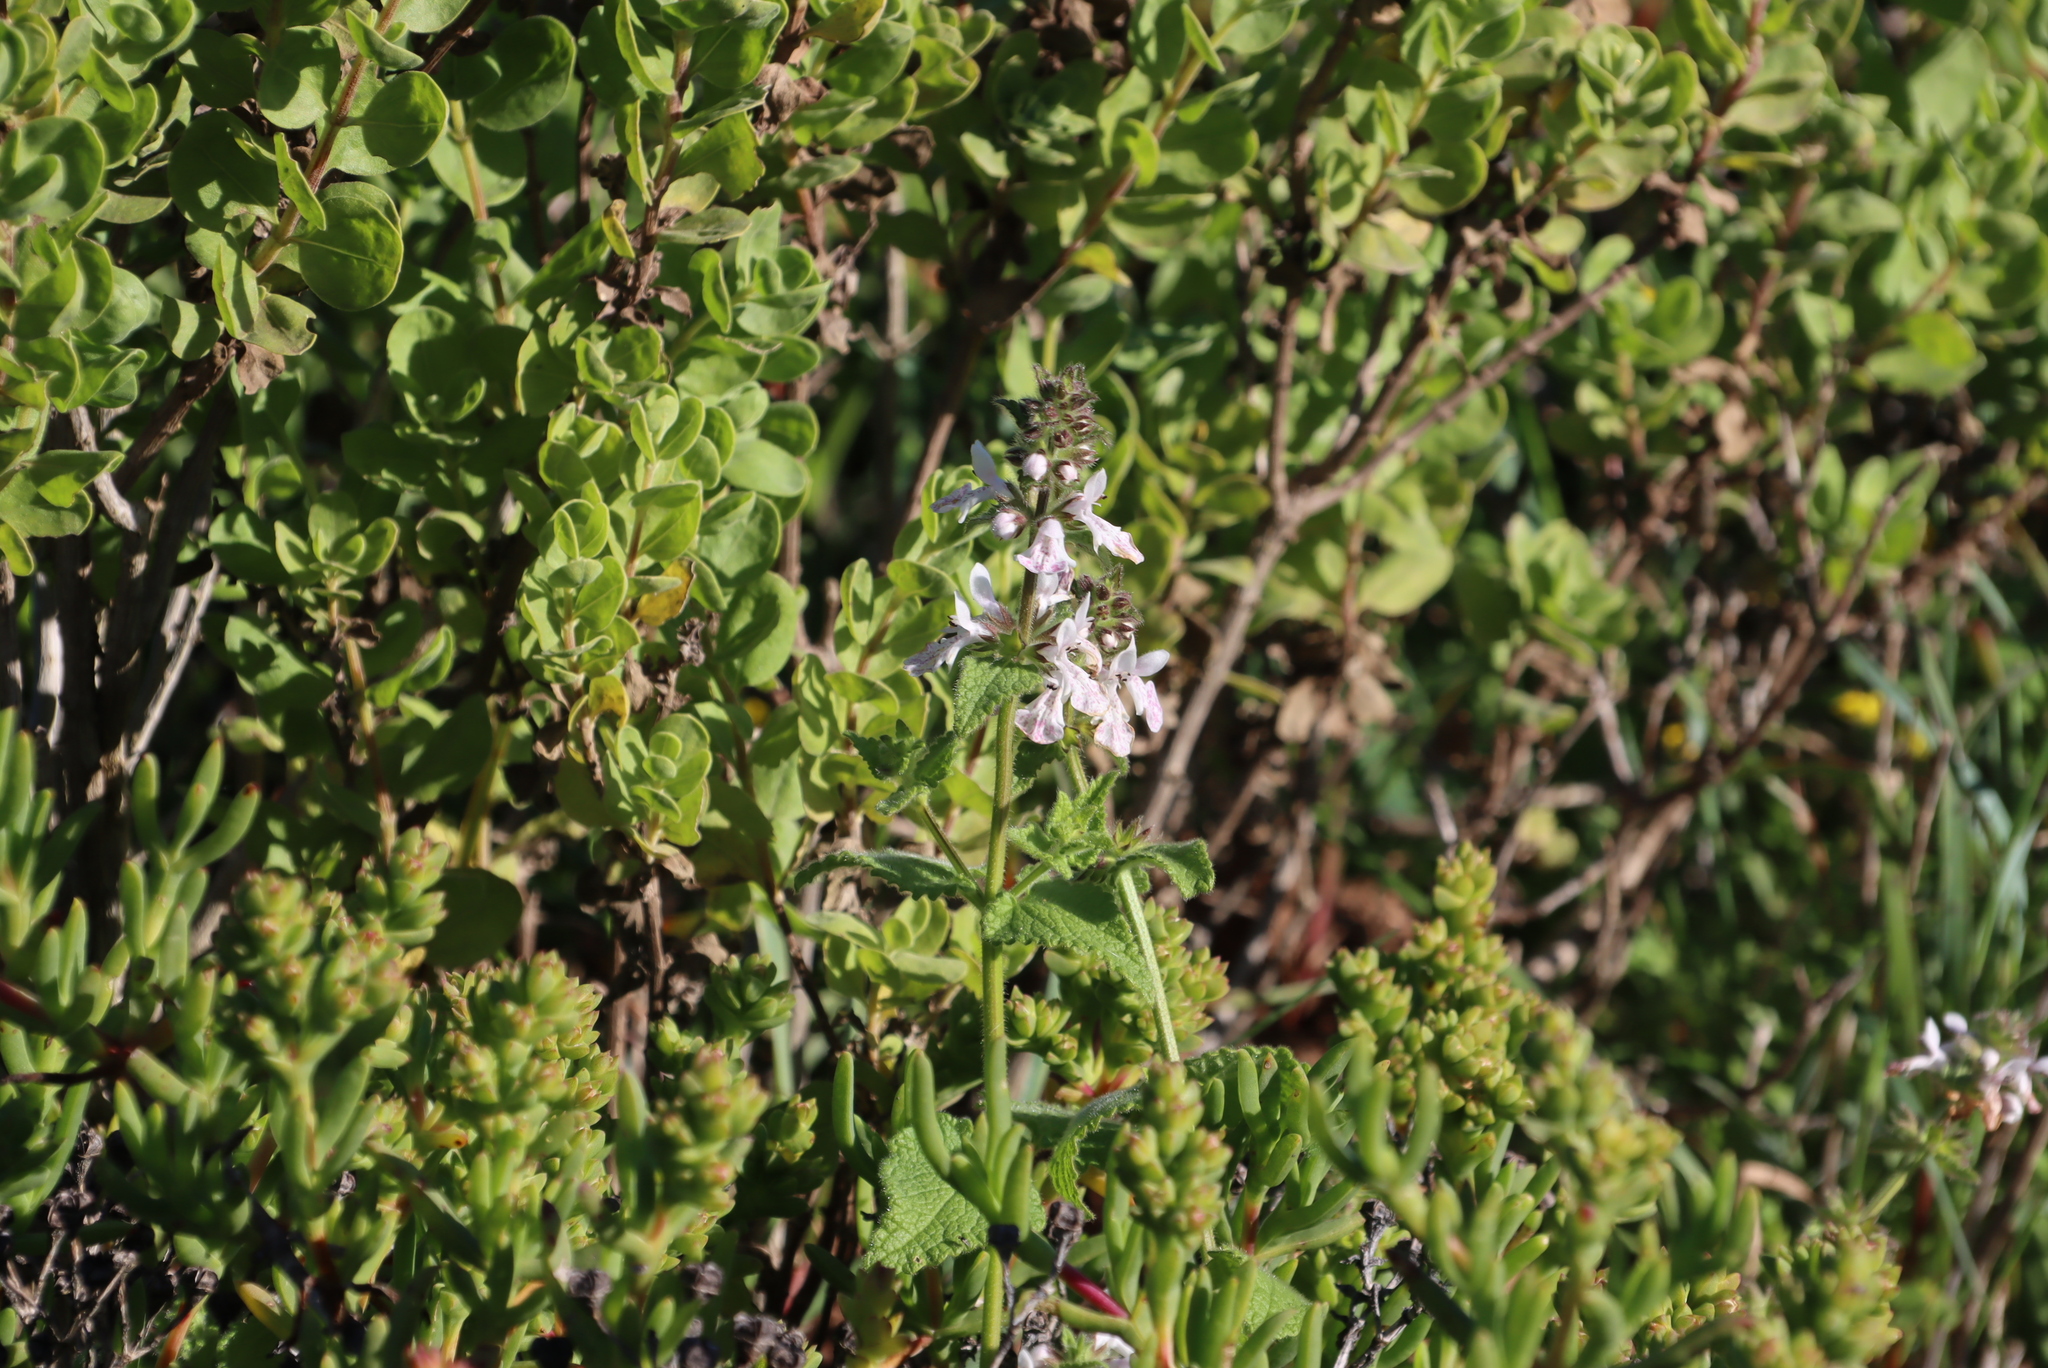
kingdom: Plantae
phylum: Tracheophyta
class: Magnoliopsida
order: Lamiales
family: Lamiaceae
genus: Stachys
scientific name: Stachys bolusii
